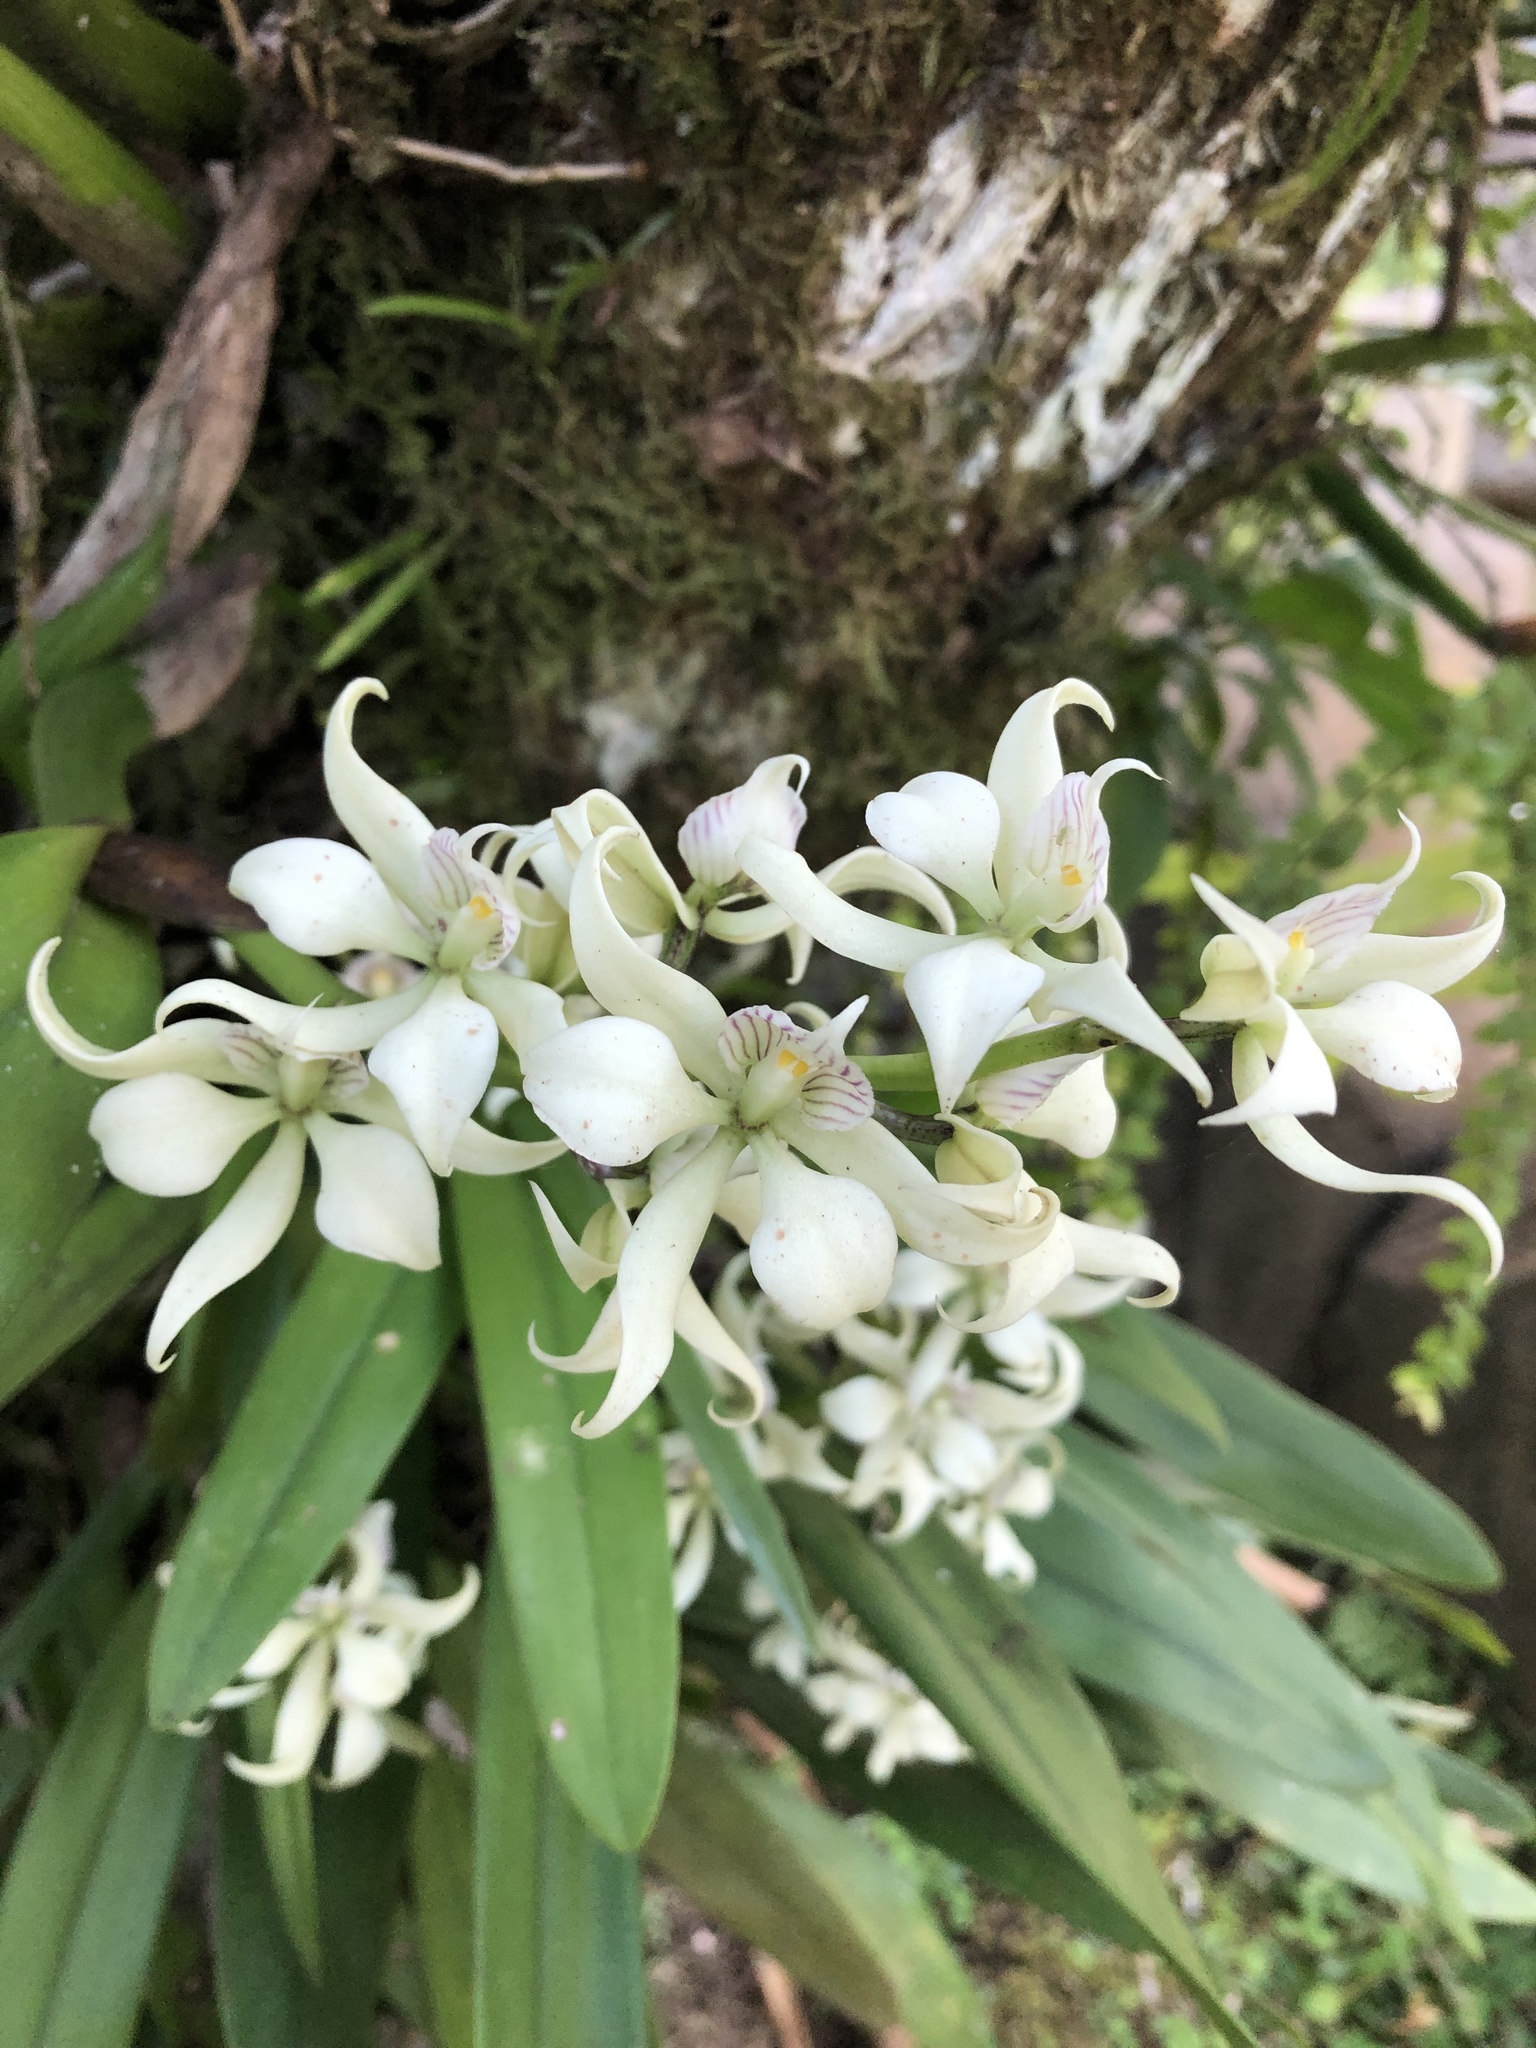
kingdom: Plantae
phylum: Tracheophyta
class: Liliopsida
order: Asparagales
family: Orchidaceae
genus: Prosthechea
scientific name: Prosthechea fragrans
